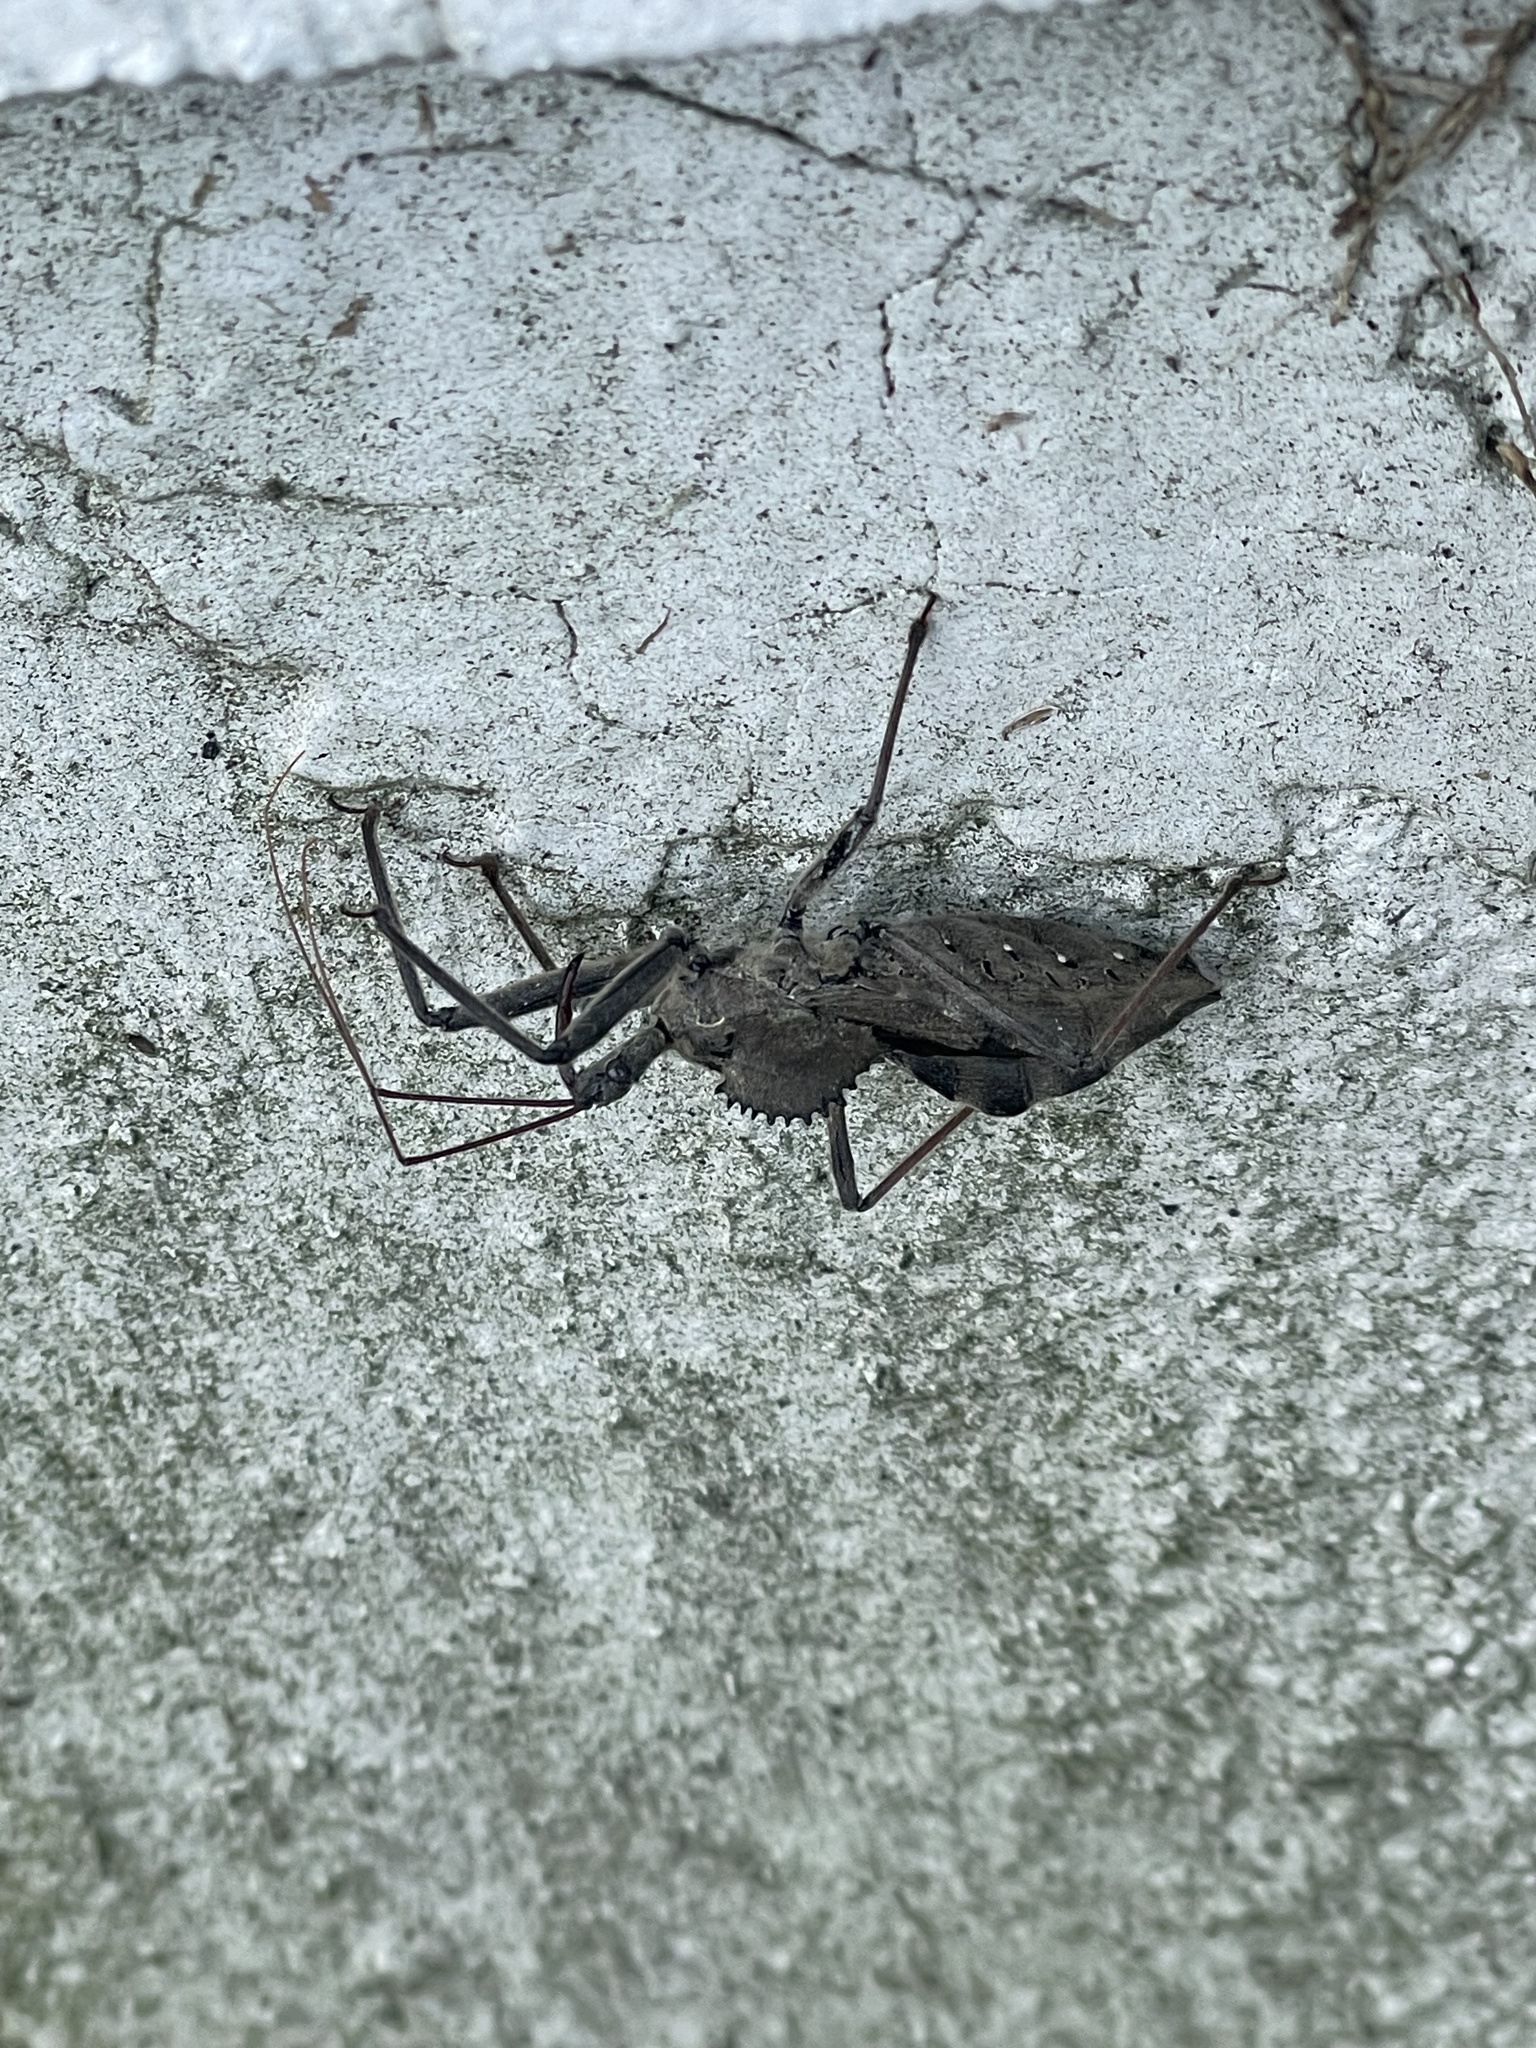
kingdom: Animalia
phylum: Arthropoda
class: Insecta
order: Hemiptera
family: Reduviidae
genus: Arilus
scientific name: Arilus cristatus
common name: North american wheel bug
